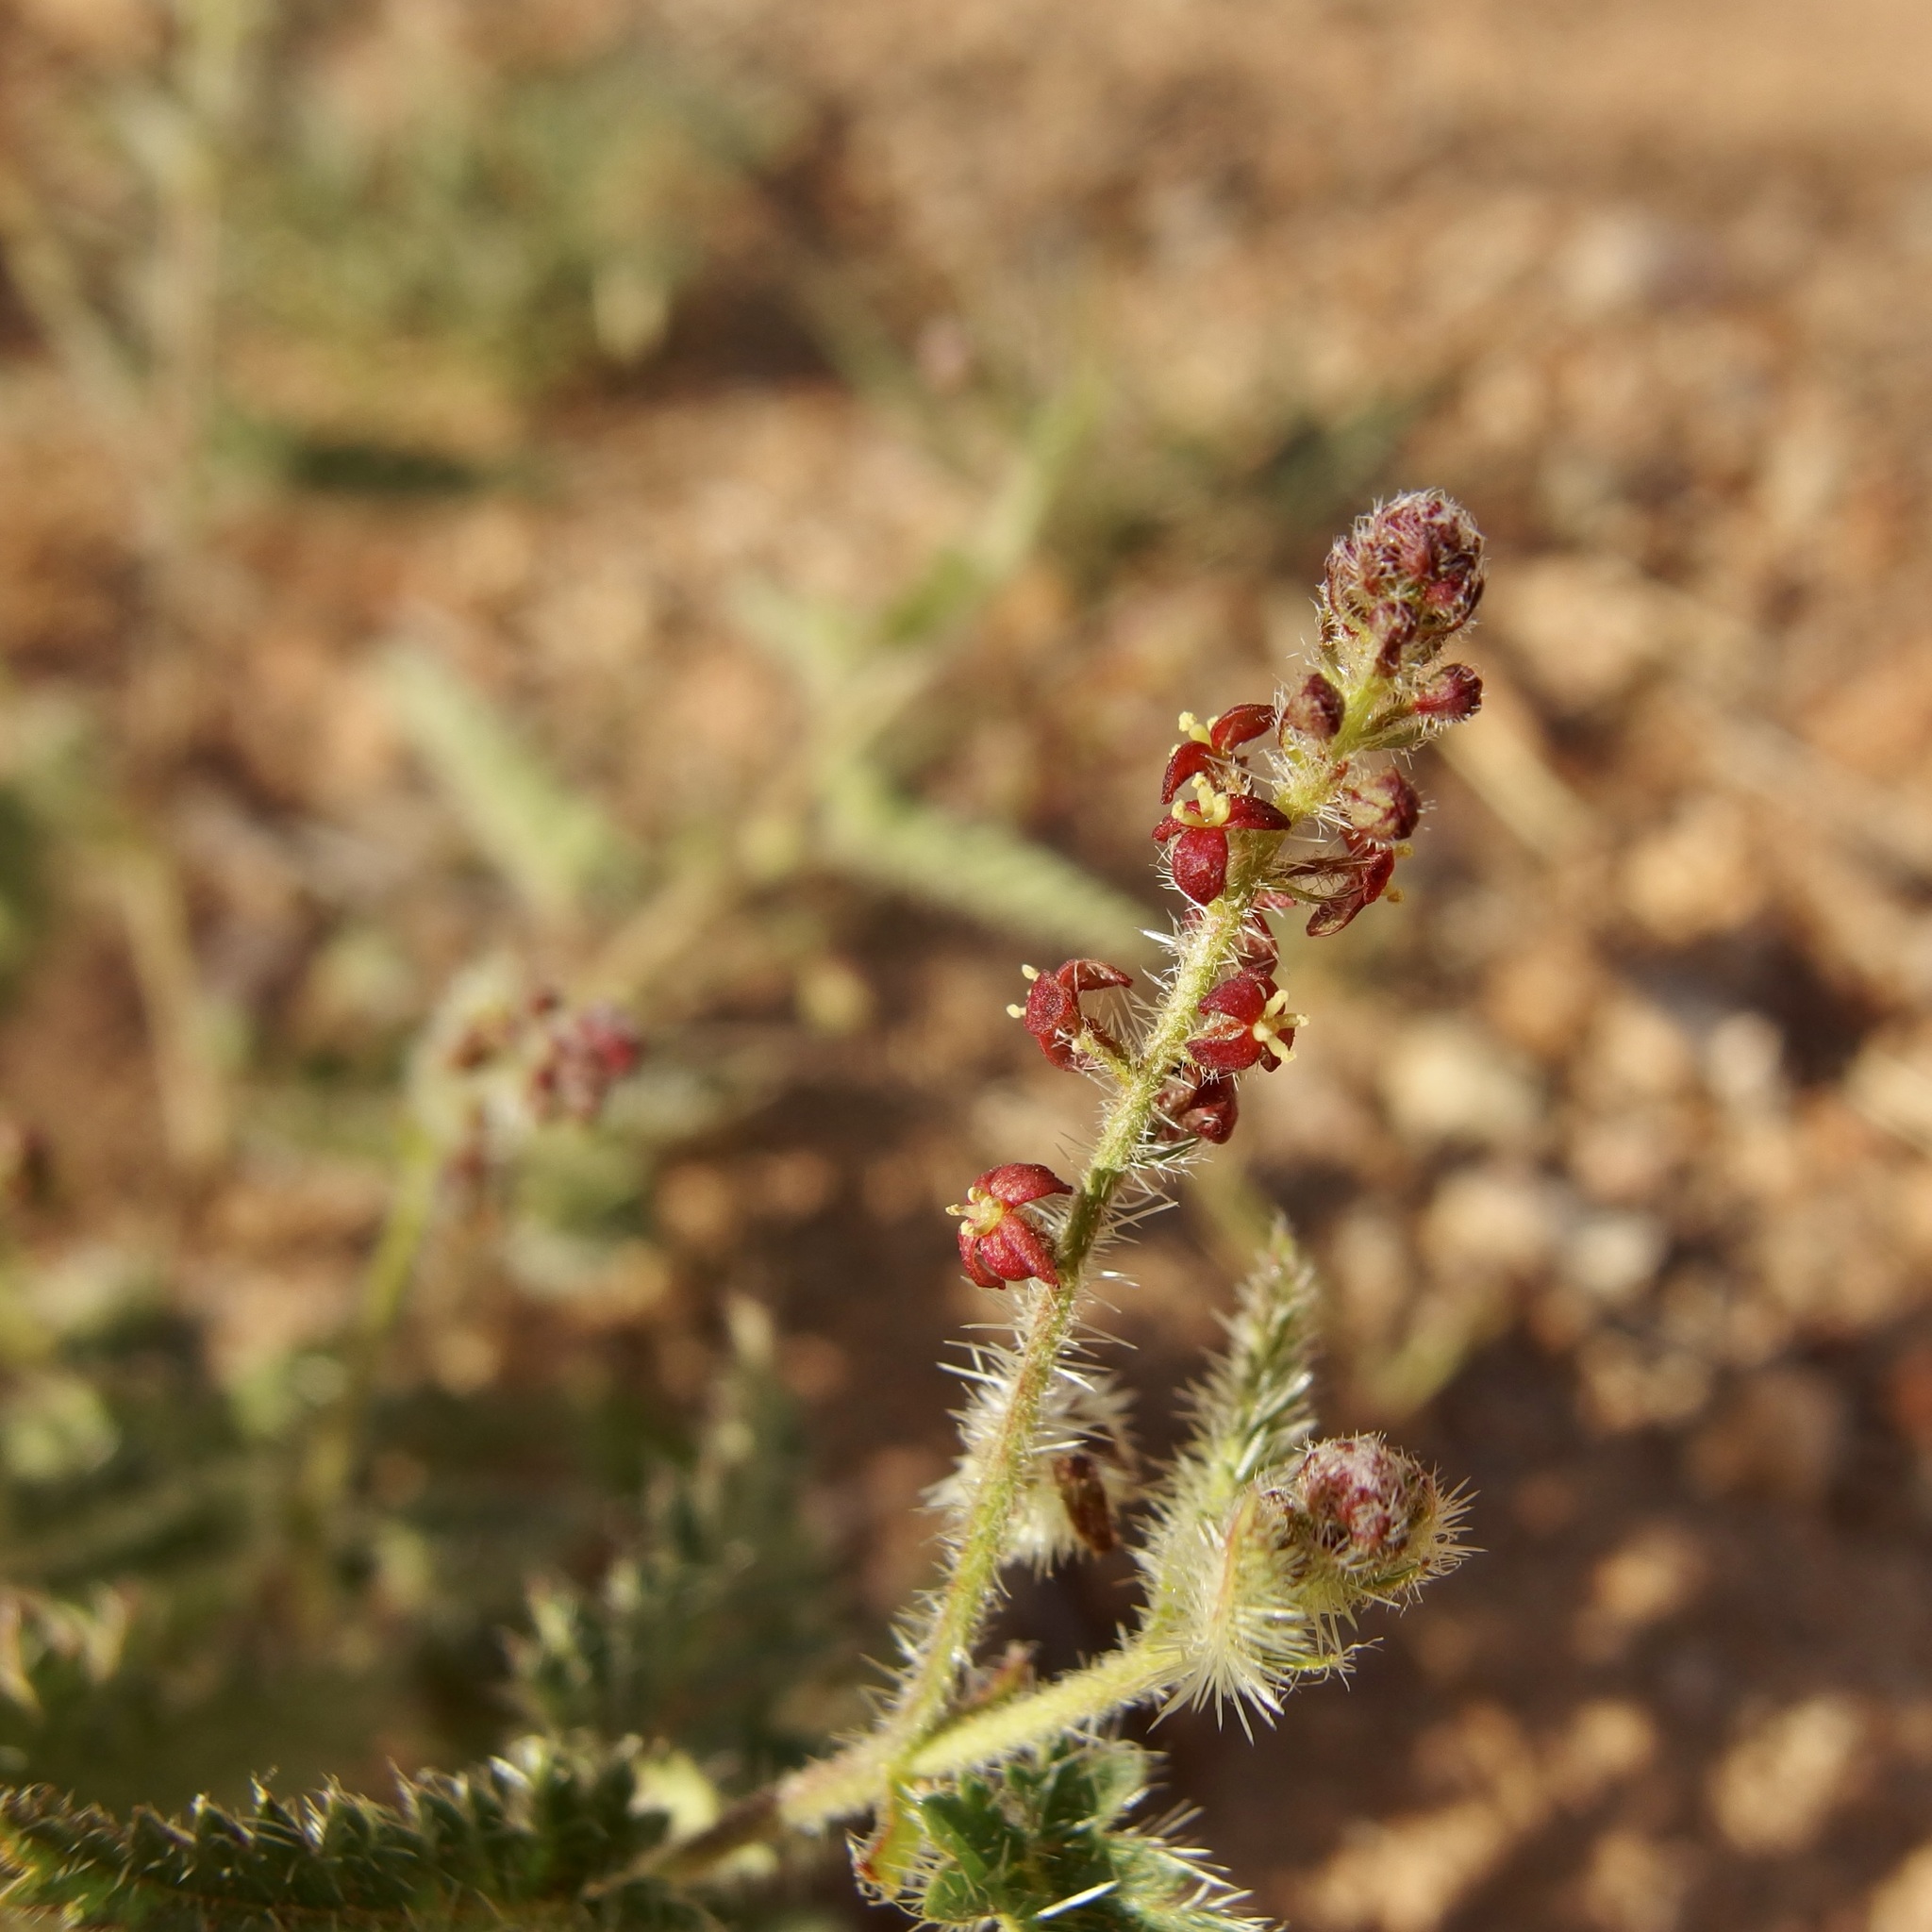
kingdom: Plantae
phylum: Tracheophyta
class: Magnoliopsida
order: Malpighiales
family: Euphorbiaceae
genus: Tragia
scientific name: Tragia nepetifolia
